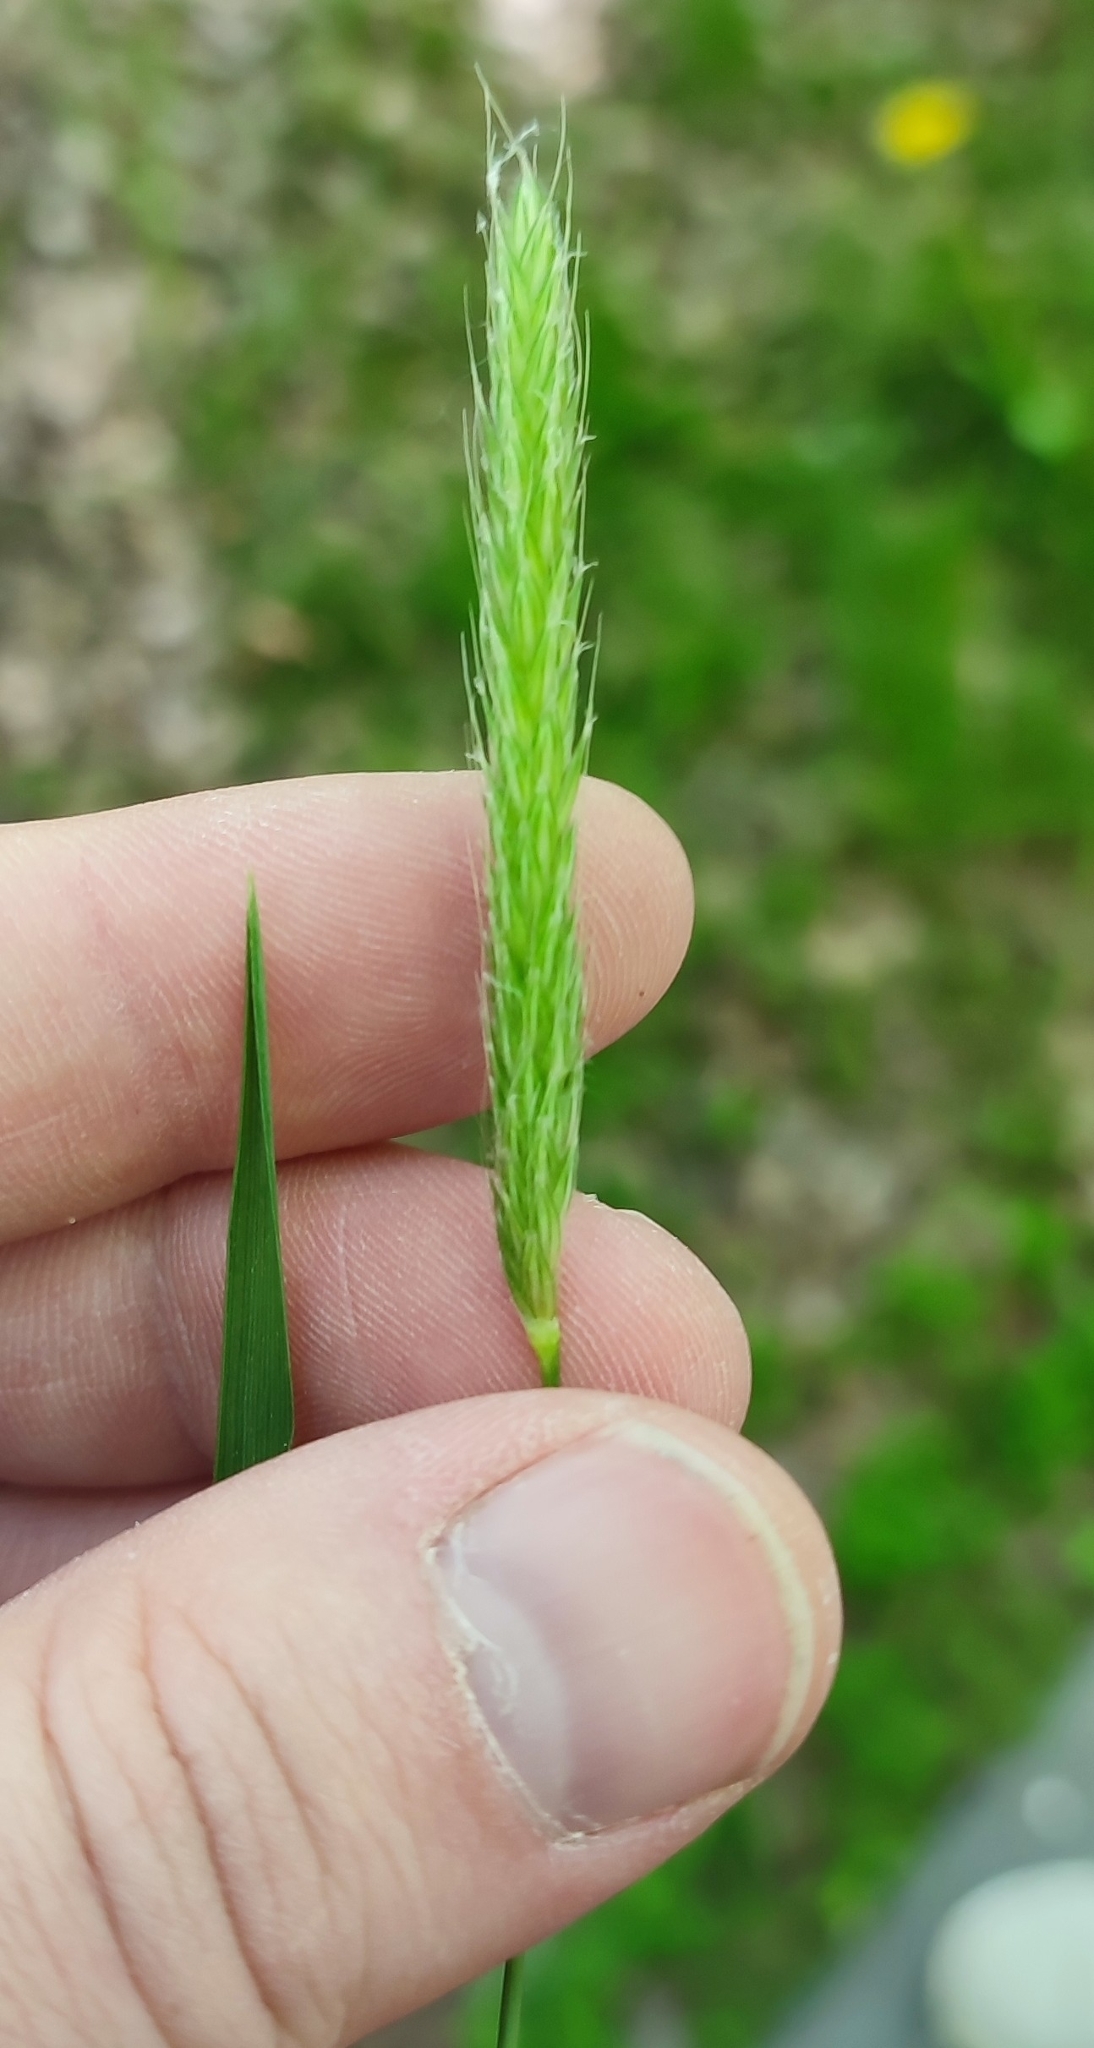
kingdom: Plantae
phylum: Tracheophyta
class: Liliopsida
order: Poales
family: Poaceae
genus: Alopecurus
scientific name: Alopecurus pratensis
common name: Meadow foxtail
